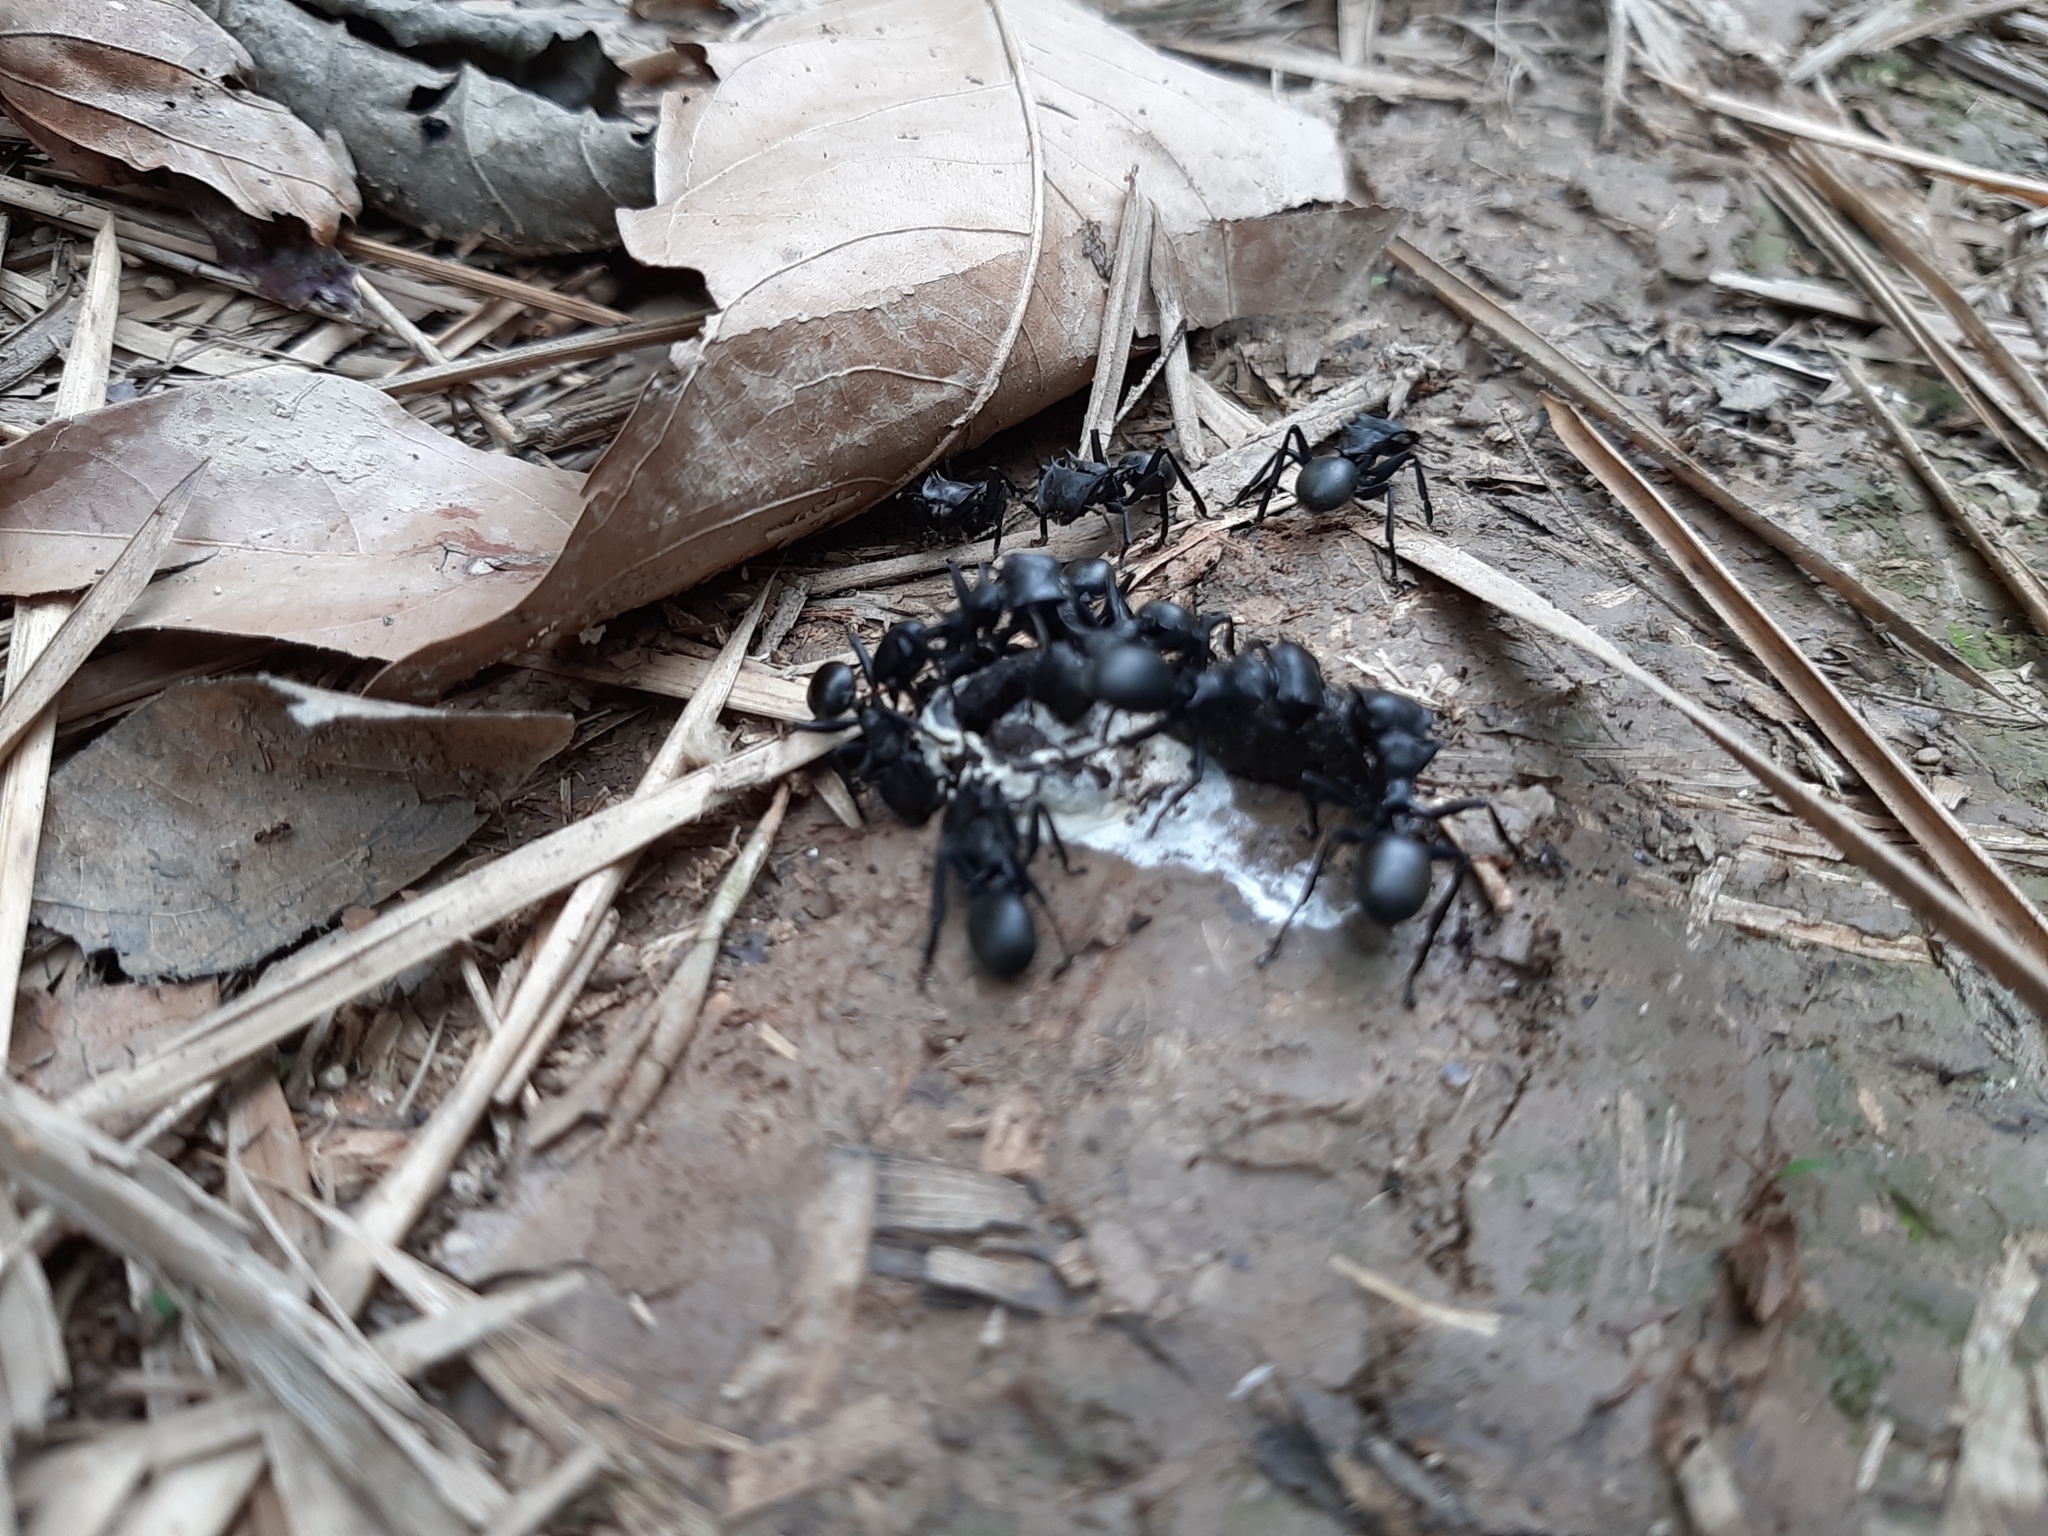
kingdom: Animalia
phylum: Arthropoda
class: Insecta
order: Hymenoptera
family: Formicidae
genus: Cephalotes
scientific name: Cephalotes atratus
